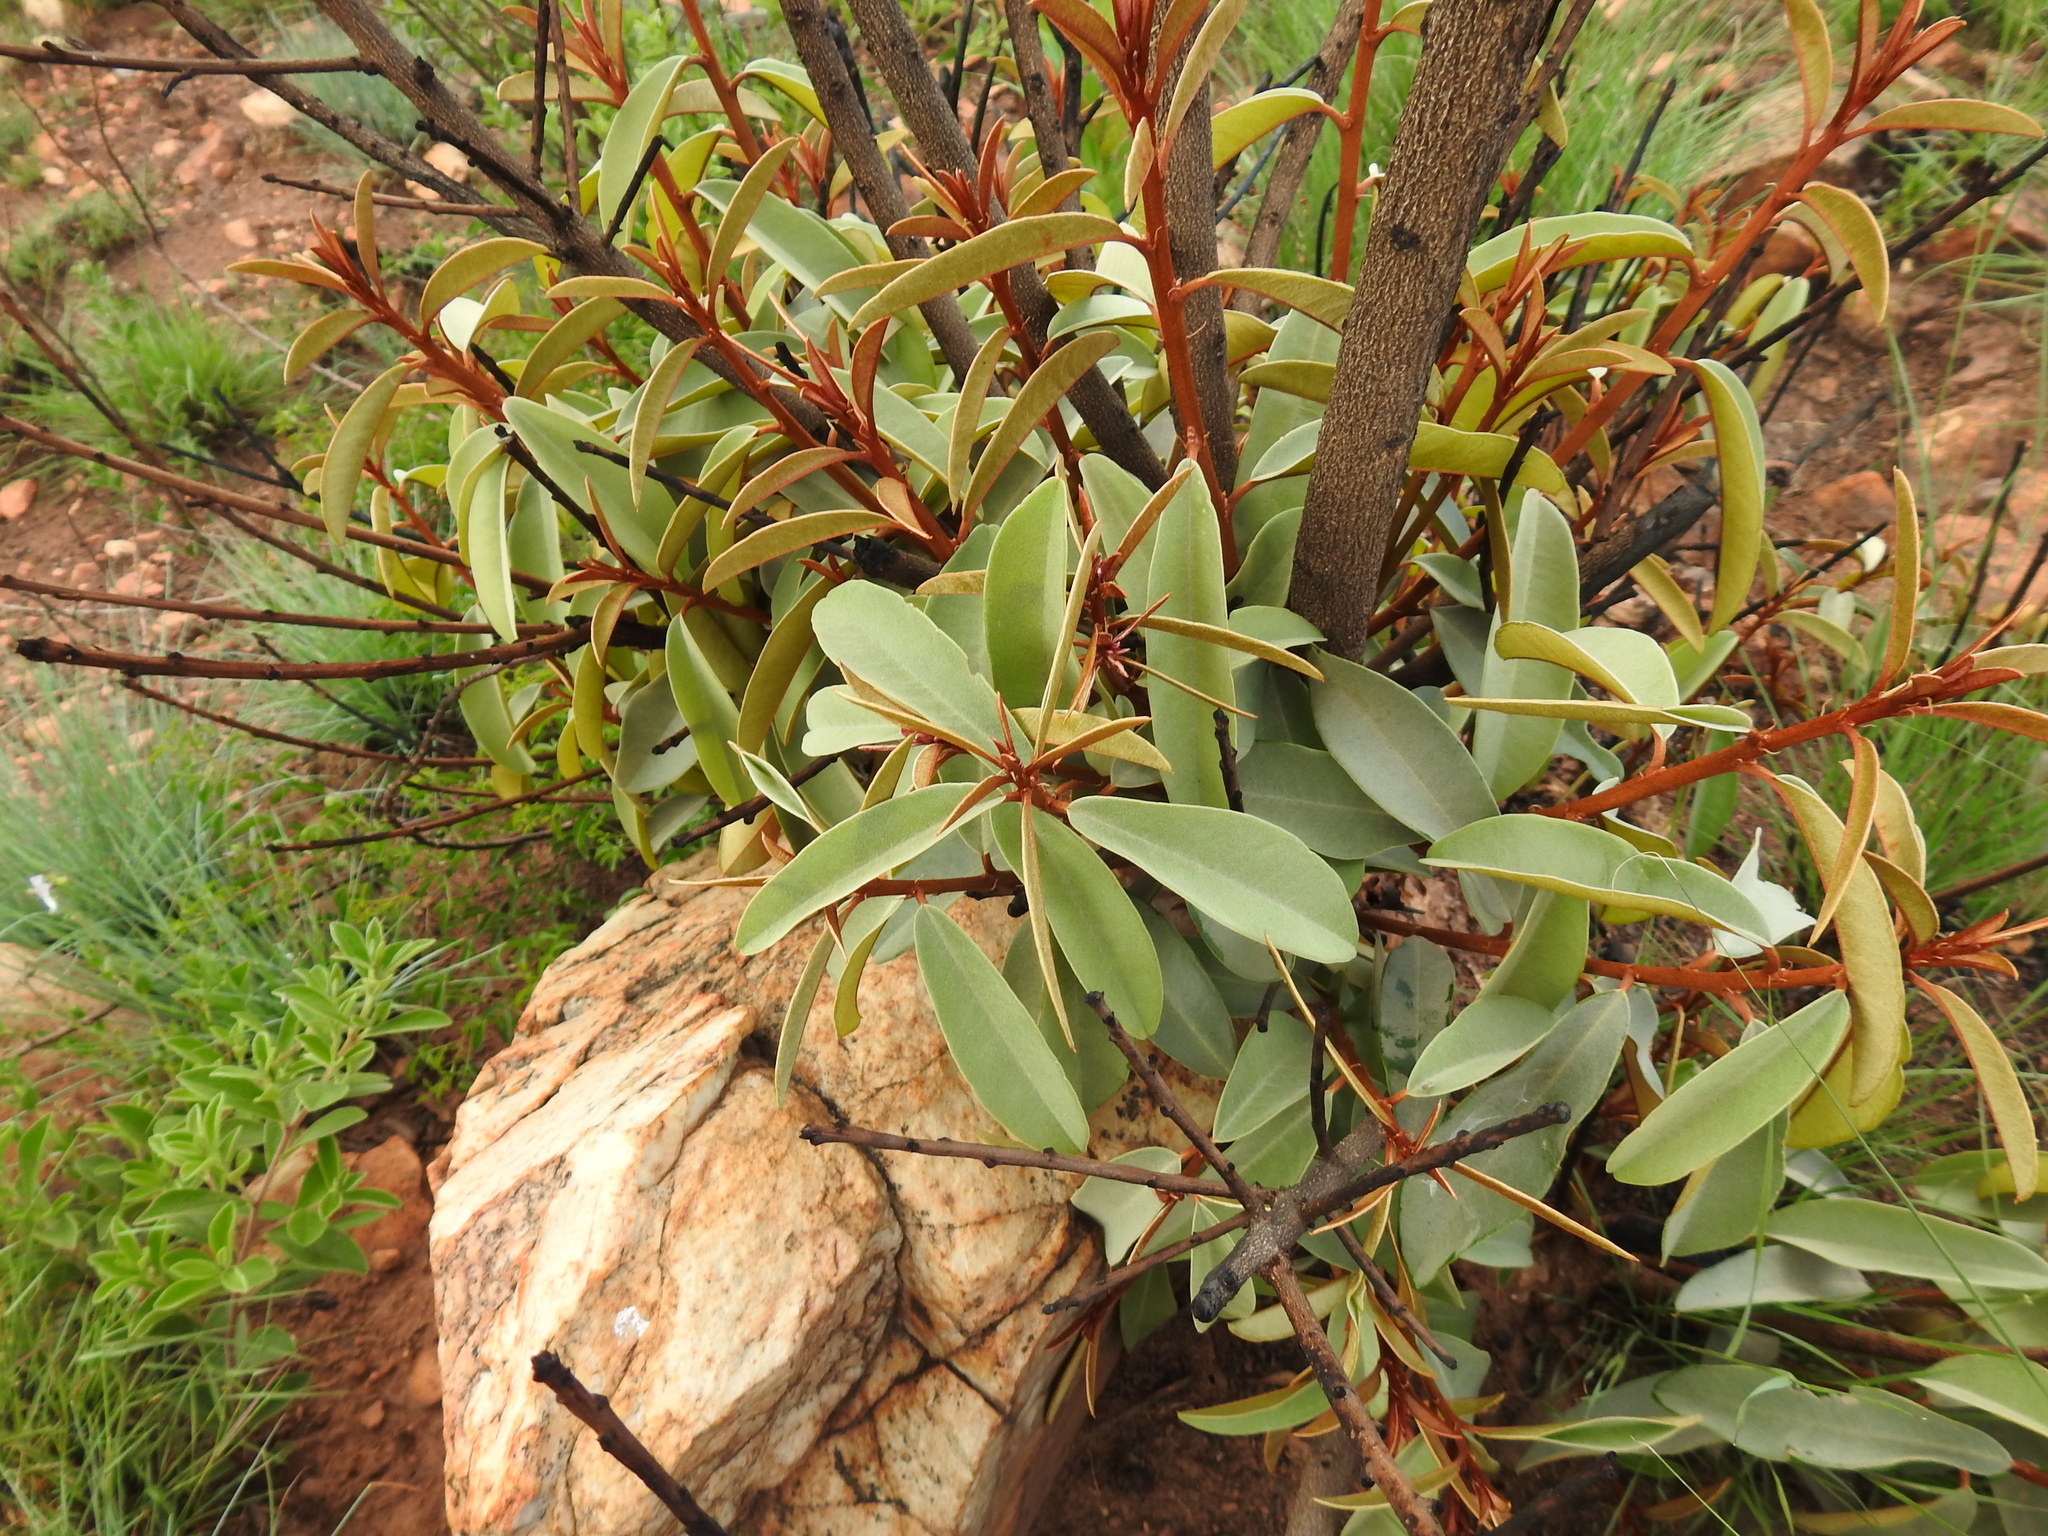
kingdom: Plantae
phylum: Tracheophyta
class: Magnoliopsida
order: Ericales
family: Sapotaceae
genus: Englerophytum
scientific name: Englerophytum magalismontanum
